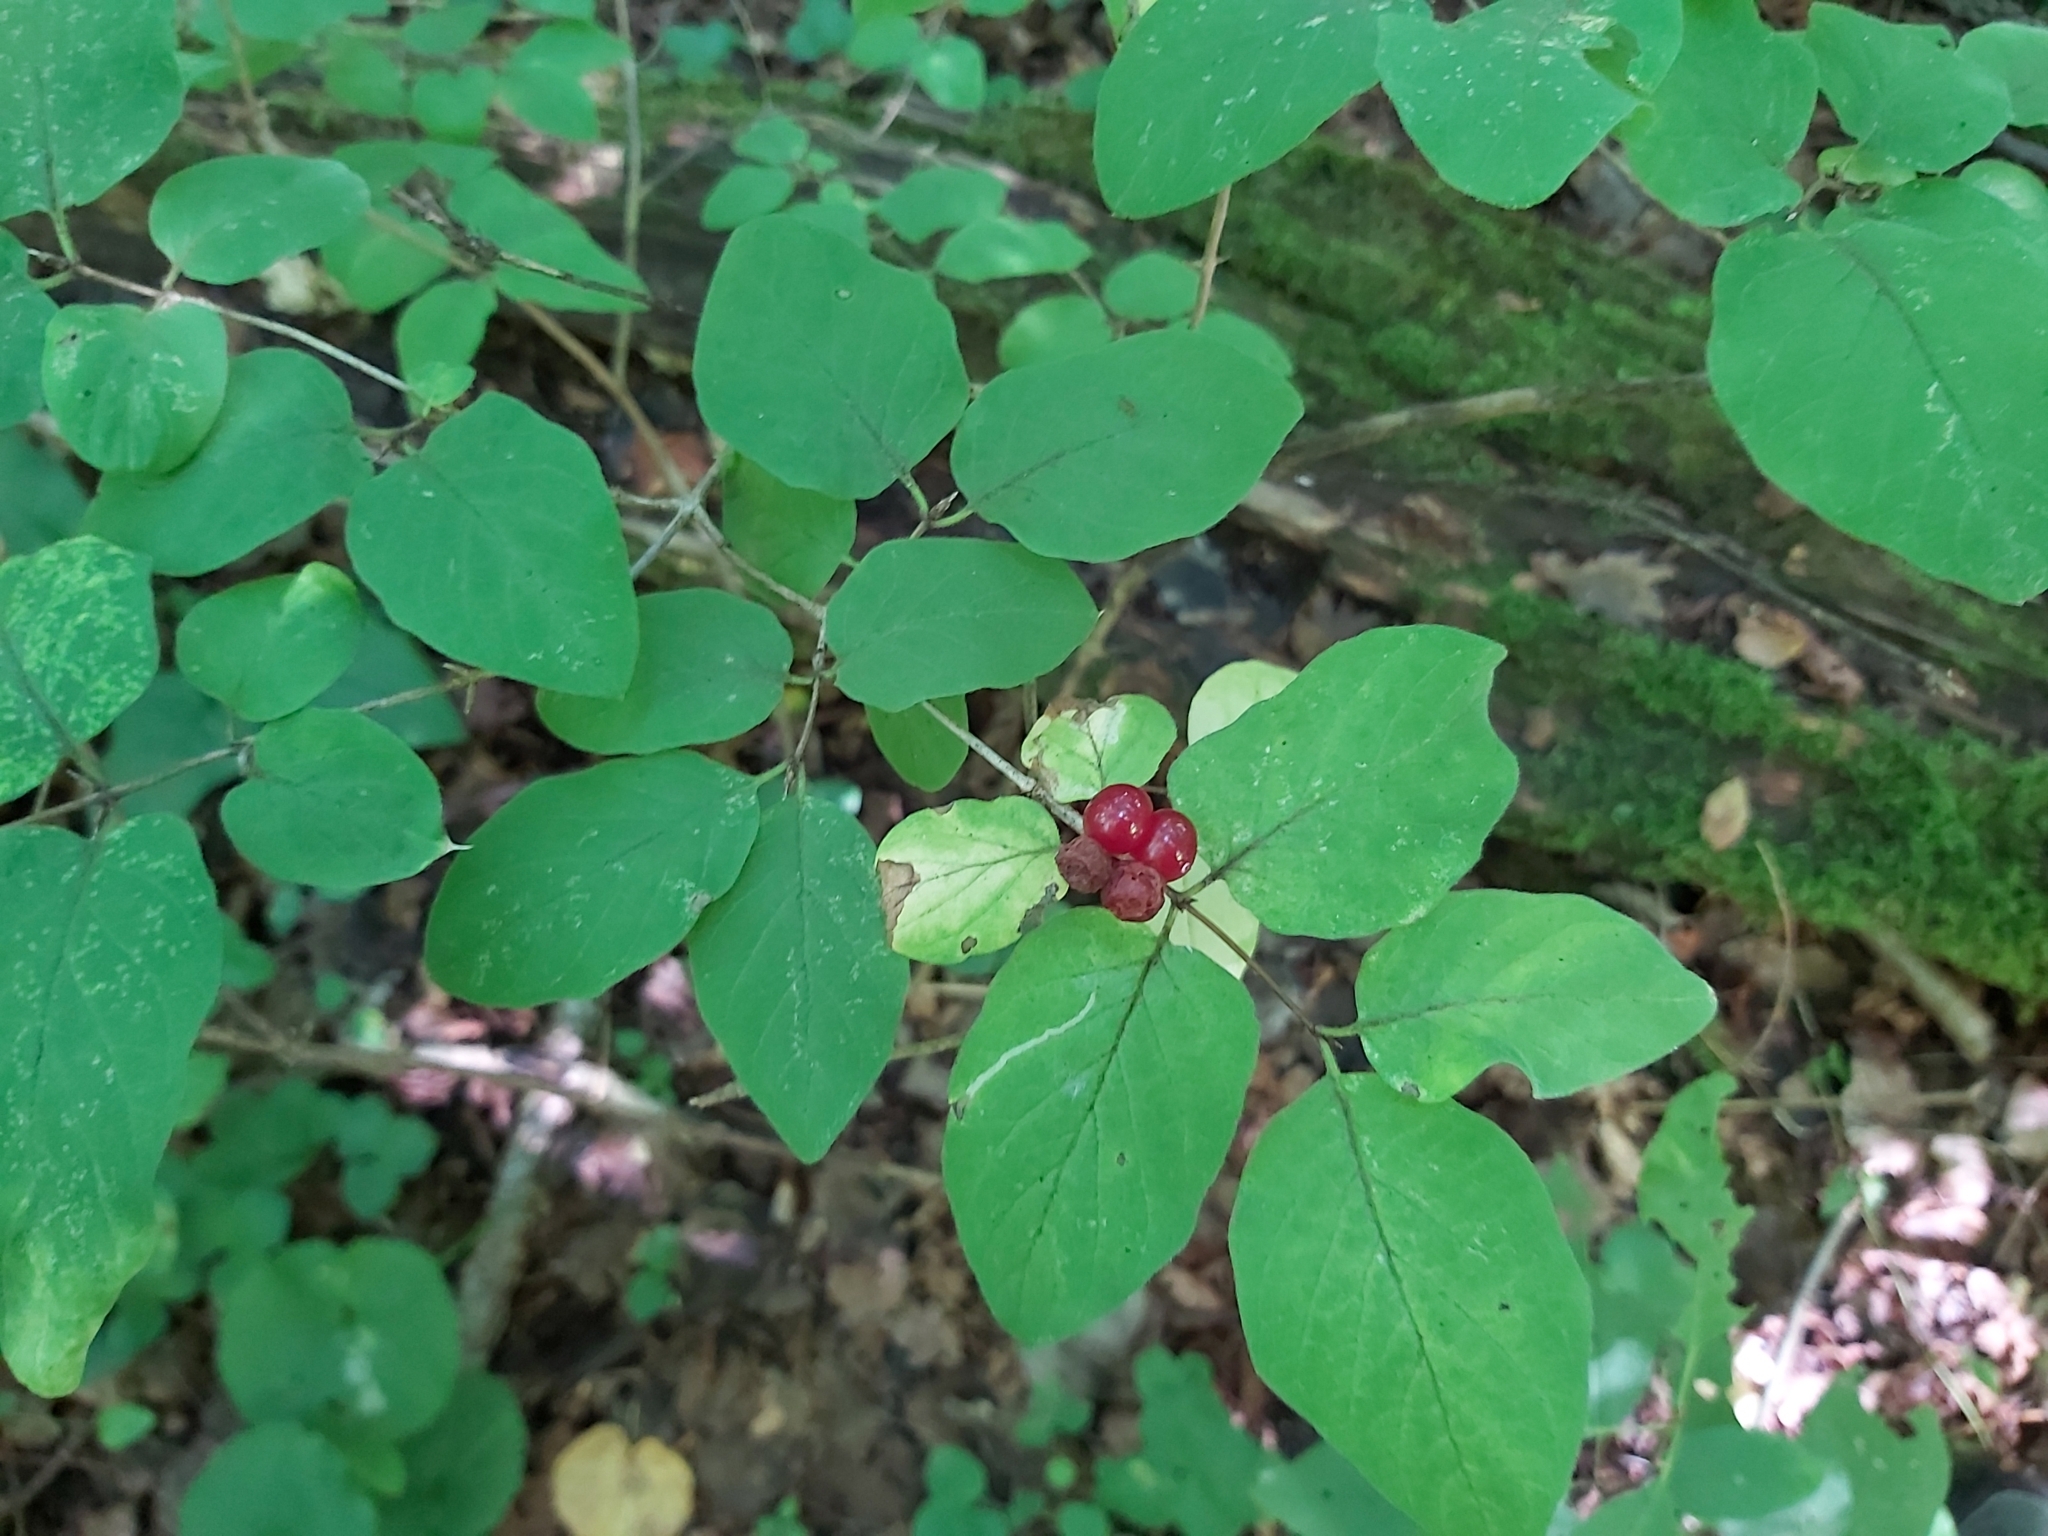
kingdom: Plantae
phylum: Tracheophyta
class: Magnoliopsida
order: Dipsacales
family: Caprifoliaceae
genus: Lonicera
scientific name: Lonicera xylosteum
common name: Fly honeysuckle
